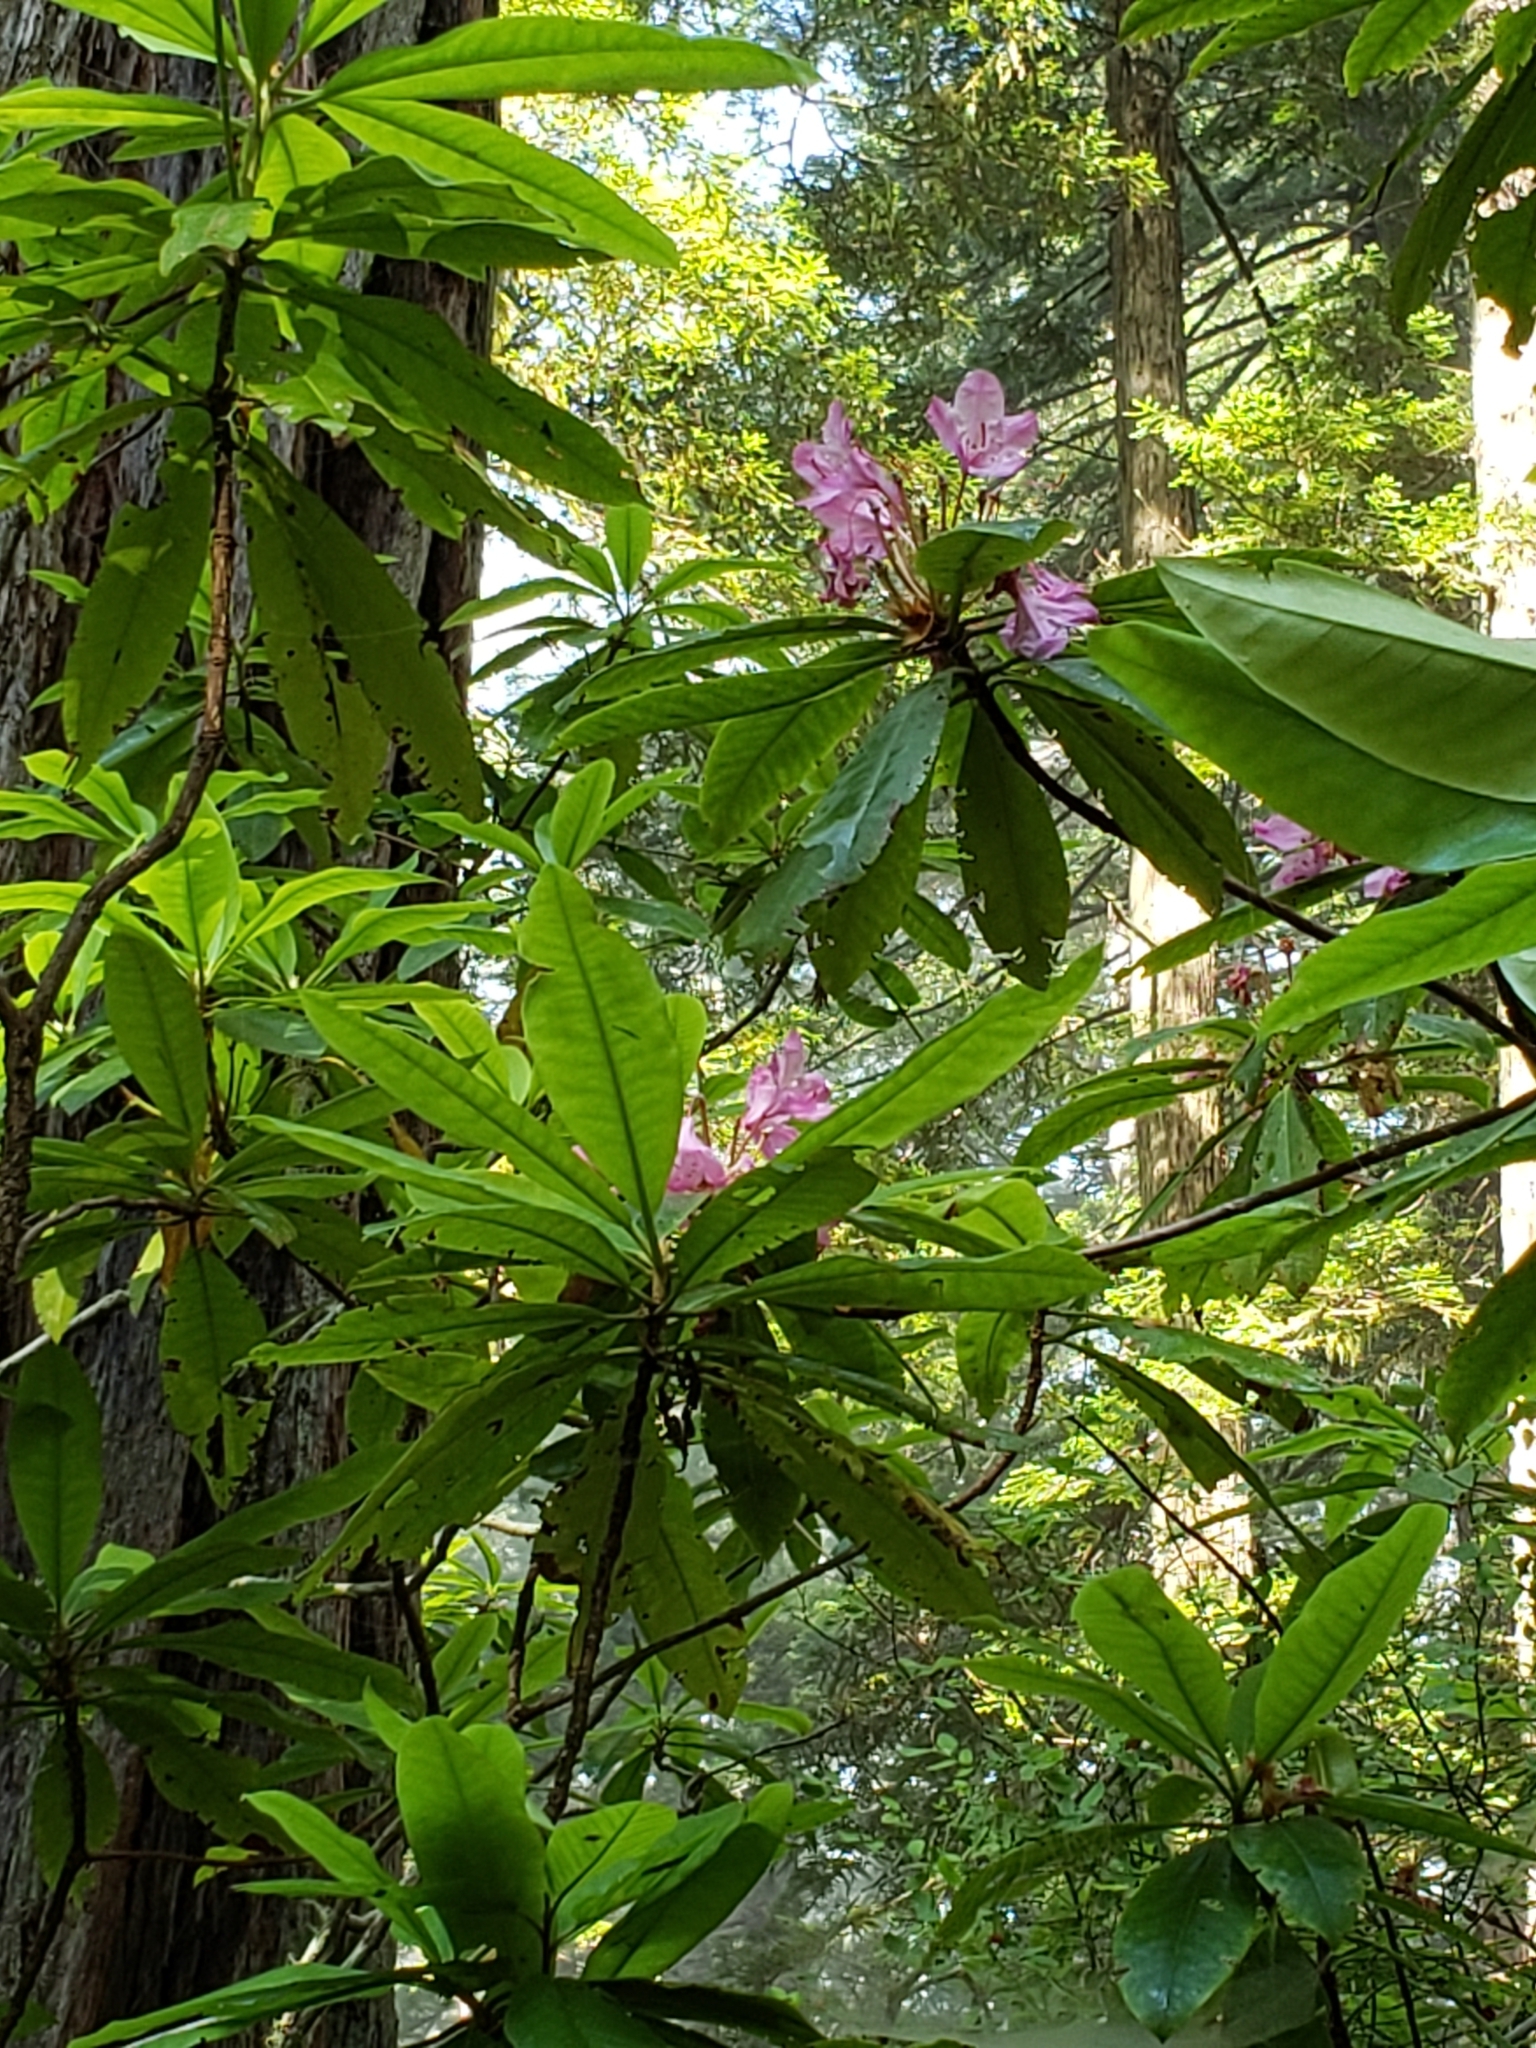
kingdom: Plantae
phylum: Tracheophyta
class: Magnoliopsida
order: Ericales
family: Ericaceae
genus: Rhododendron
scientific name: Rhododendron macrophyllum
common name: California rose bay
